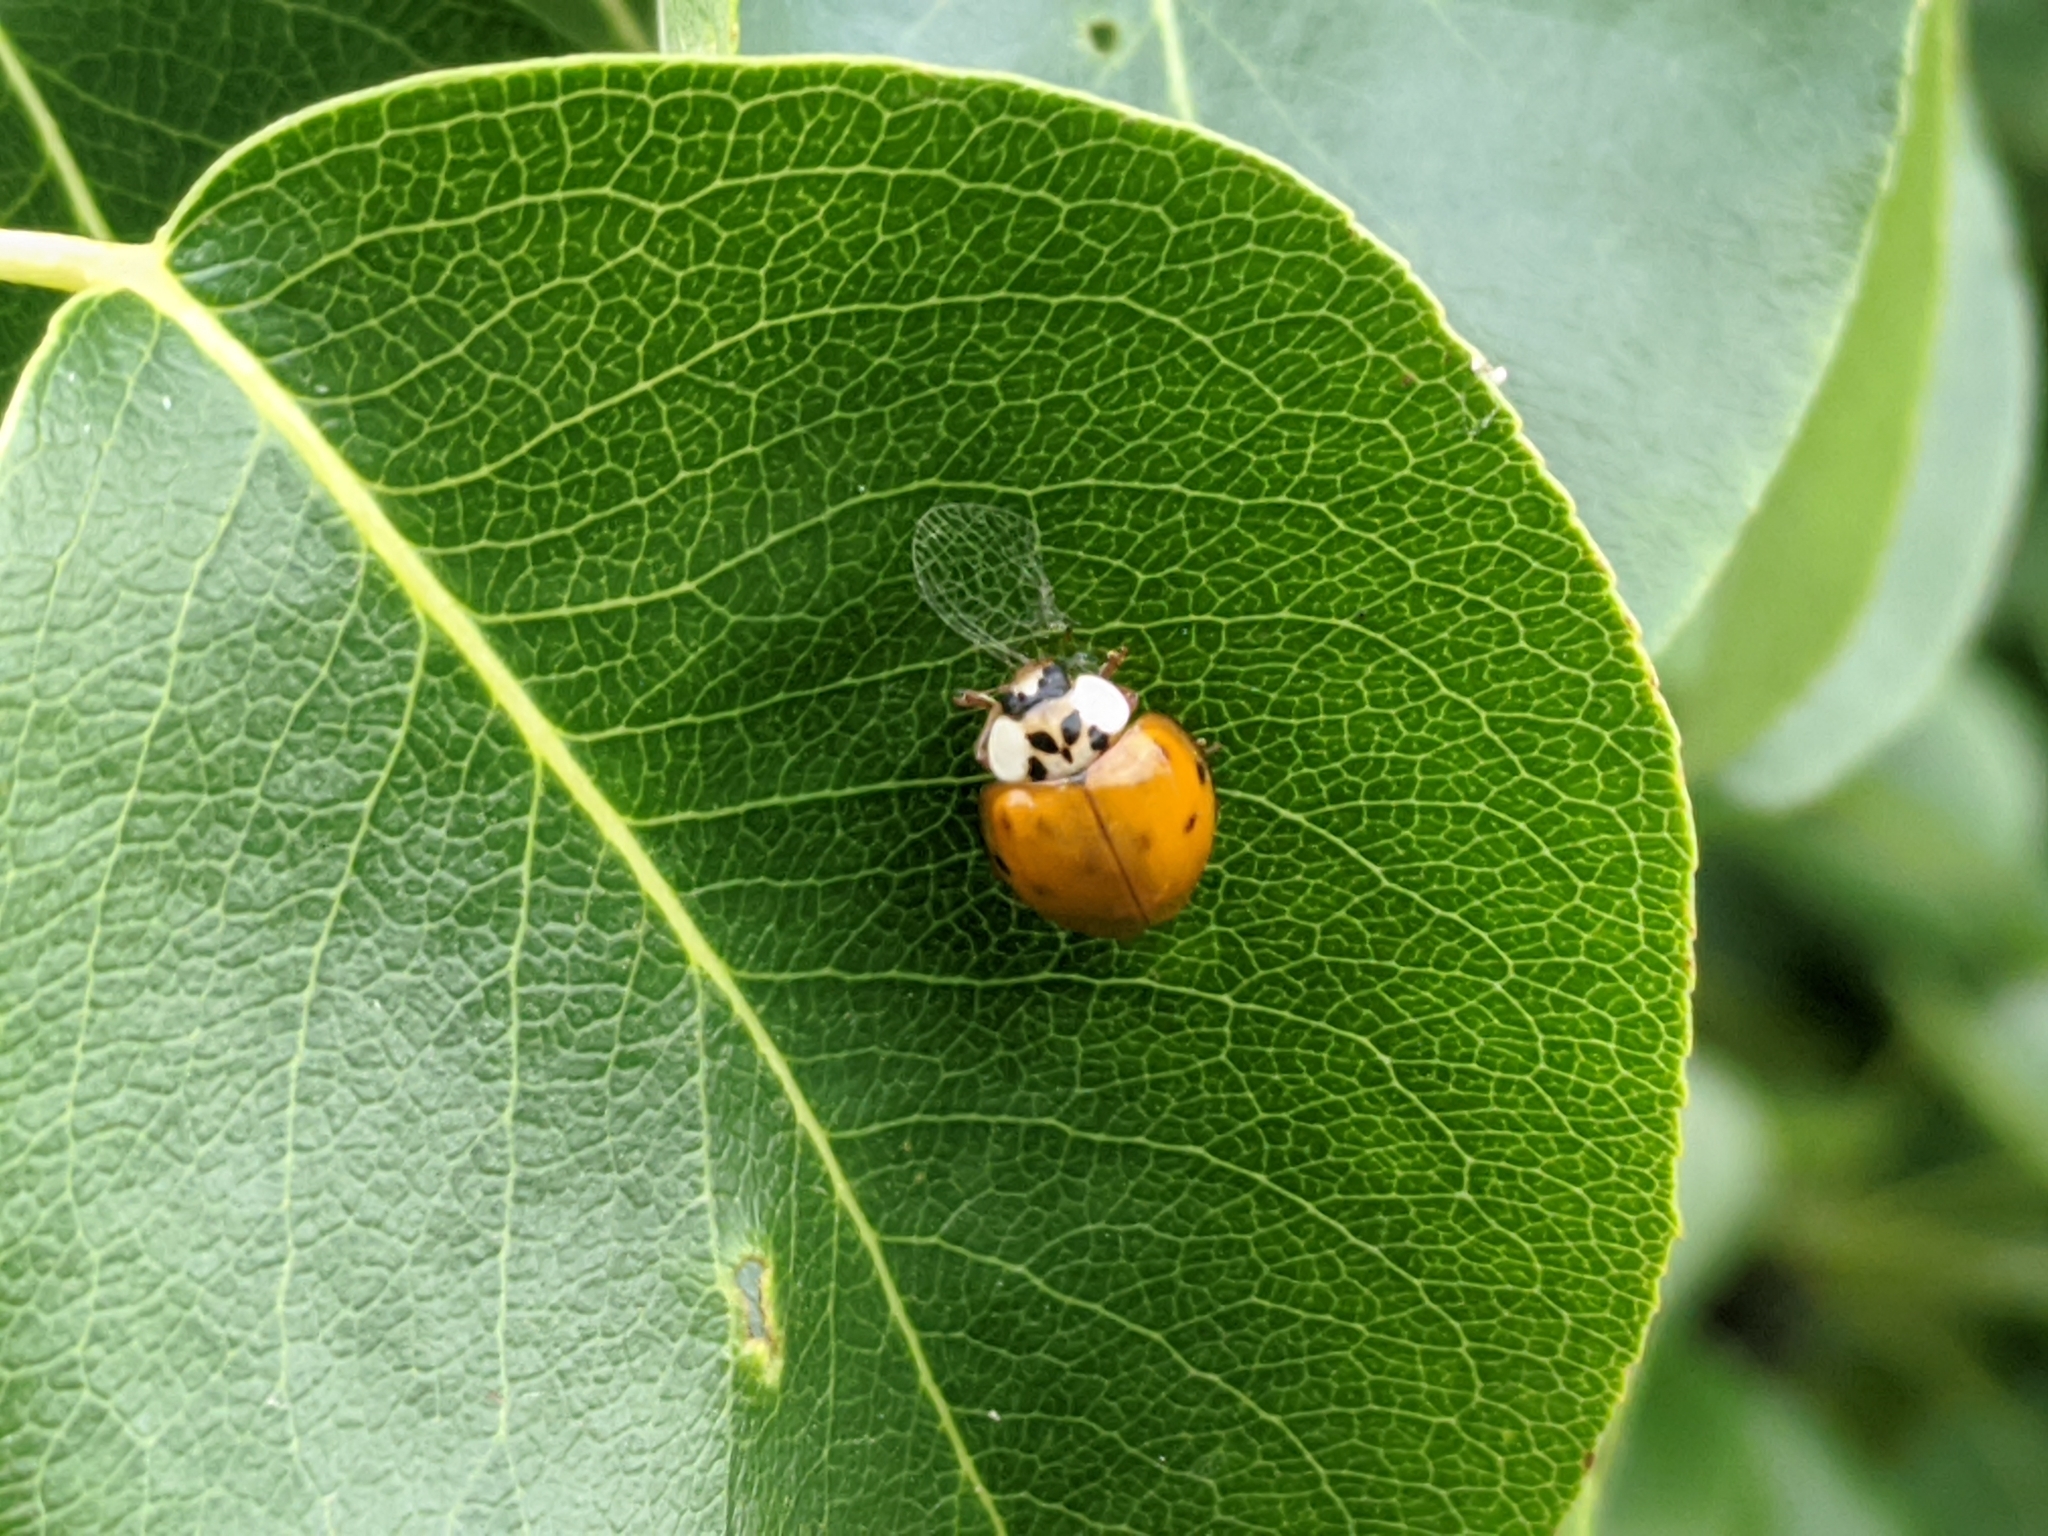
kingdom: Animalia
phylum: Arthropoda
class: Insecta
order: Coleoptera
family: Coccinellidae
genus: Harmonia
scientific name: Harmonia axyridis
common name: Harlequin ladybird
